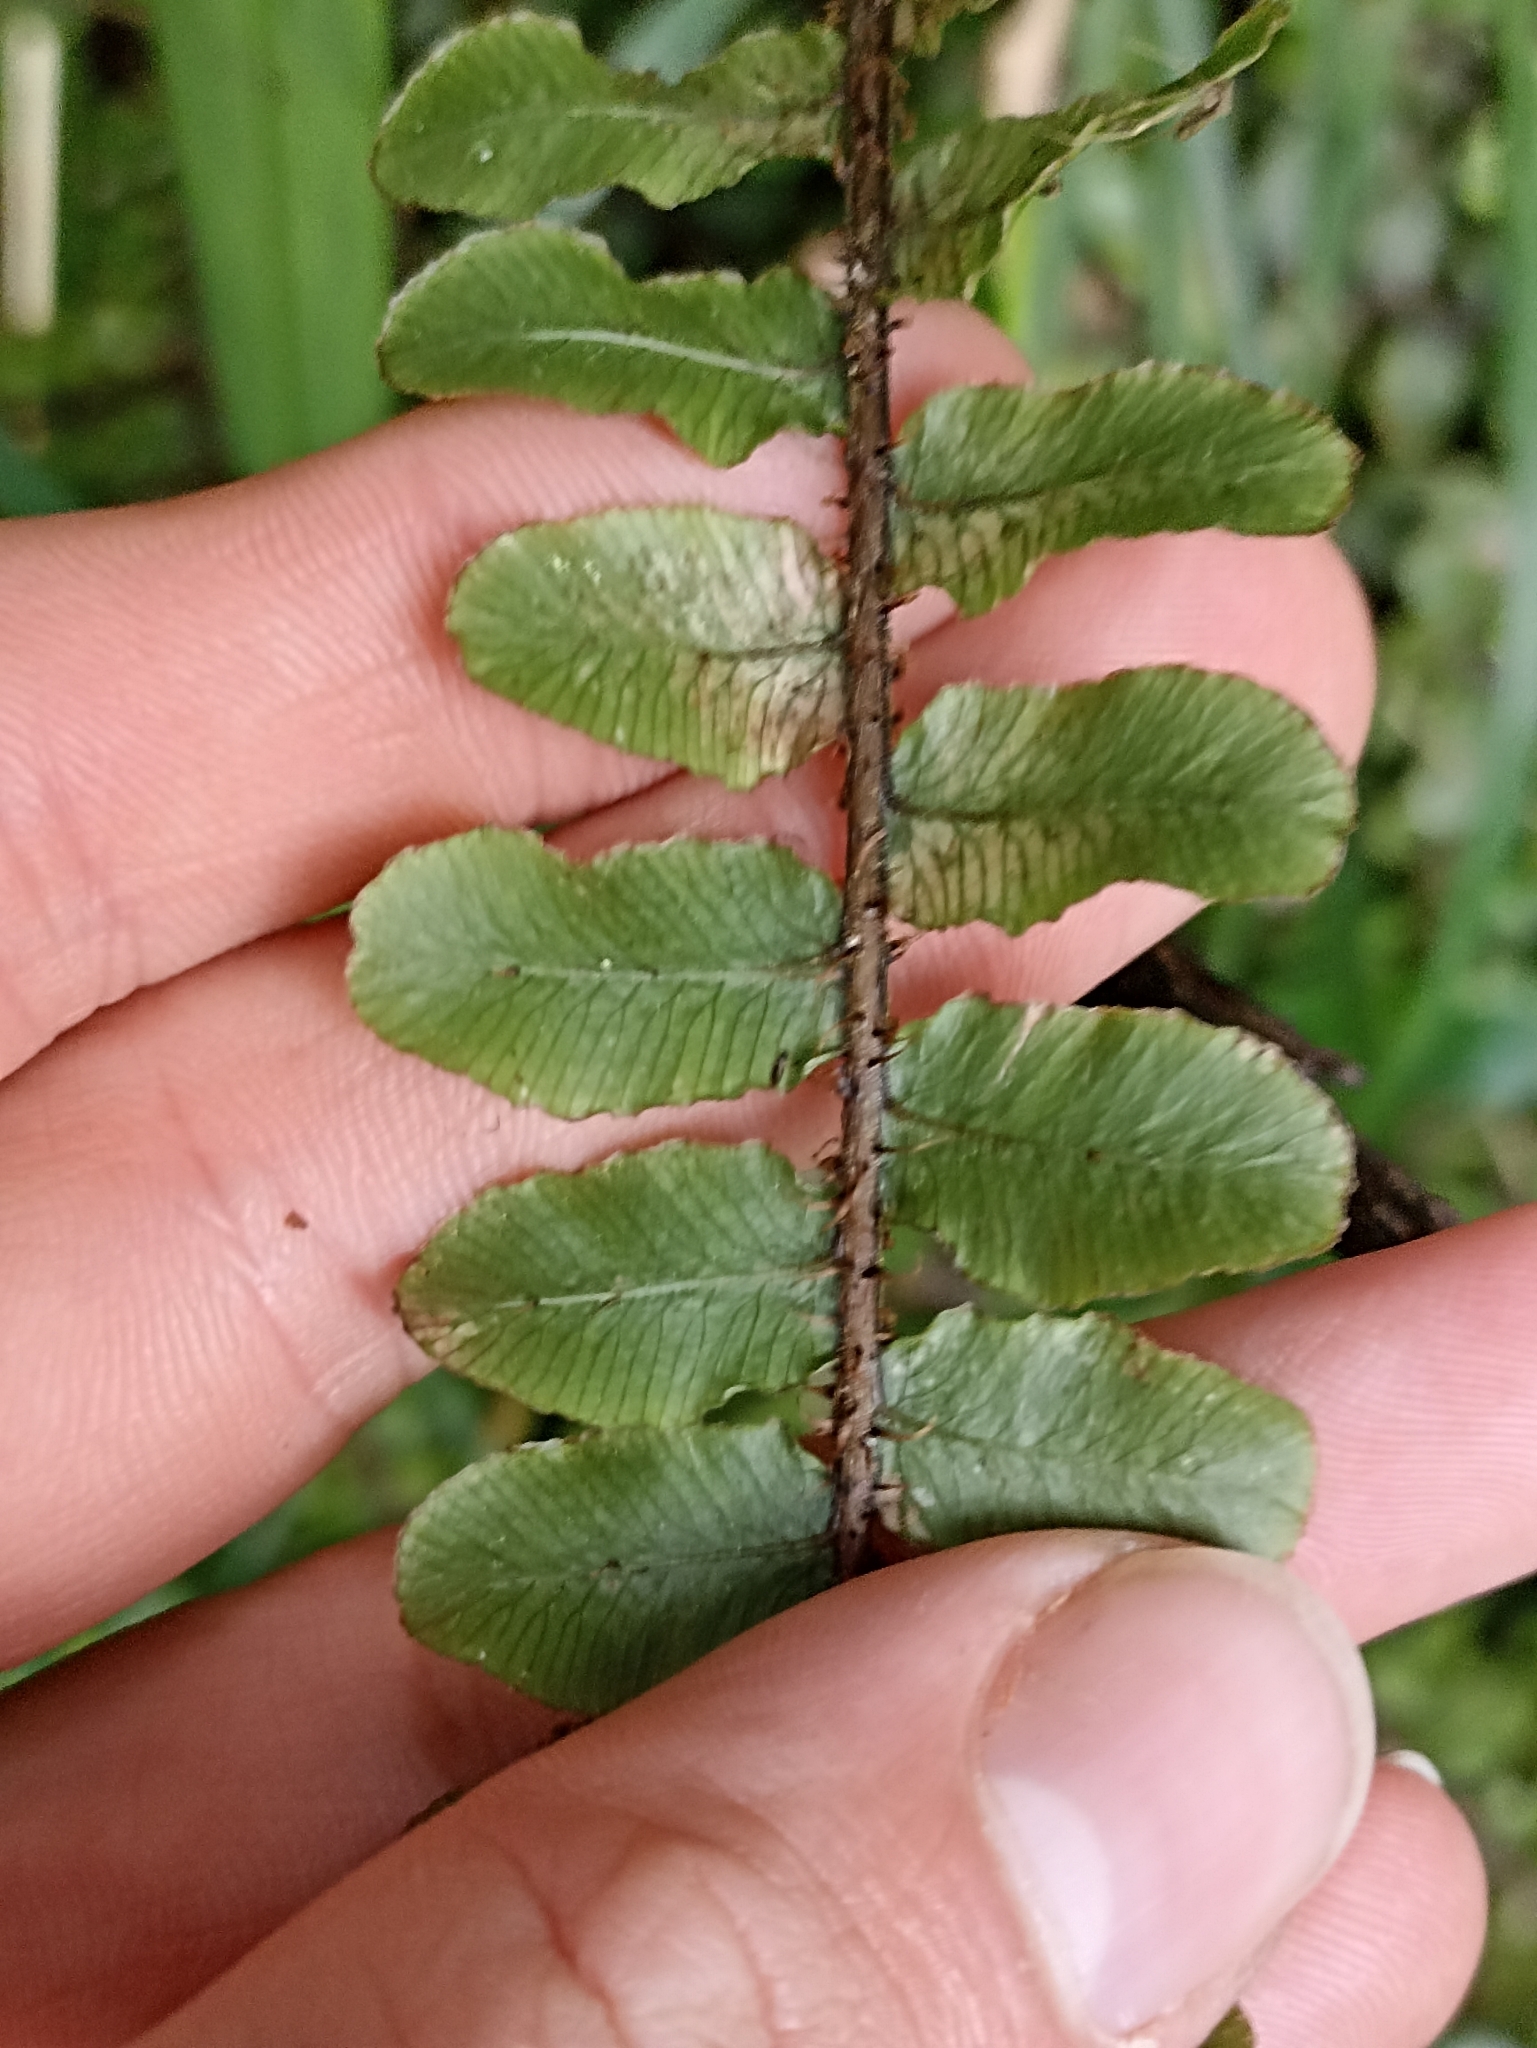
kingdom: Plantae
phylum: Tracheophyta
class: Polypodiopsida
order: Polypodiales
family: Blechnaceae
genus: Cranfillia
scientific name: Cranfillia fluviatilis
